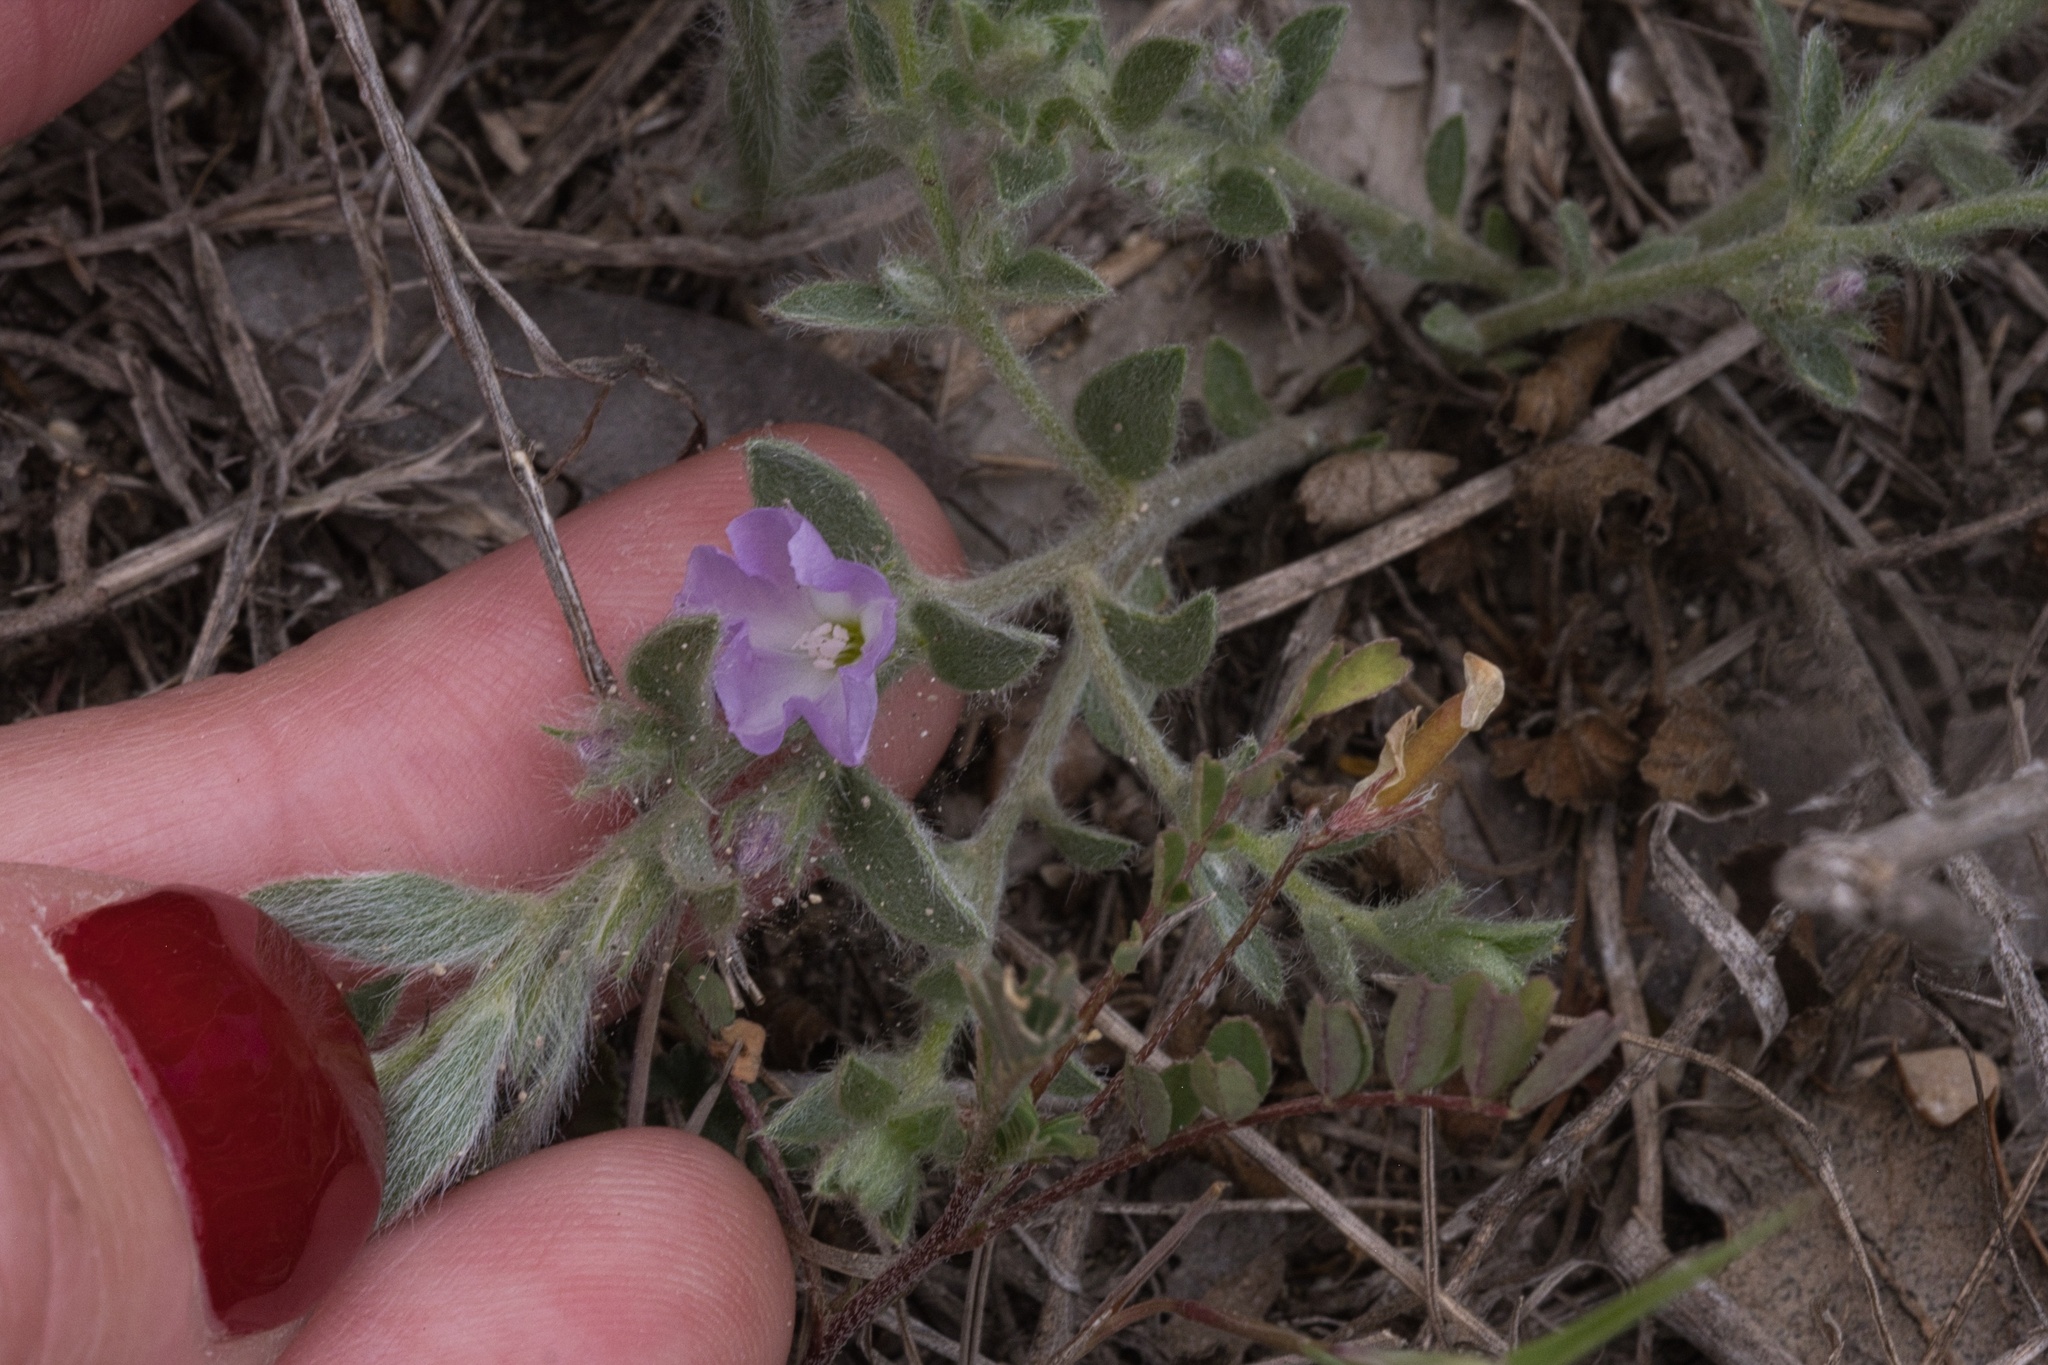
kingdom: Plantae
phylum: Tracheophyta
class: Magnoliopsida
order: Solanales
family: Convolvulaceae
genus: Evolvulus
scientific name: Evolvulus nuttallianus
